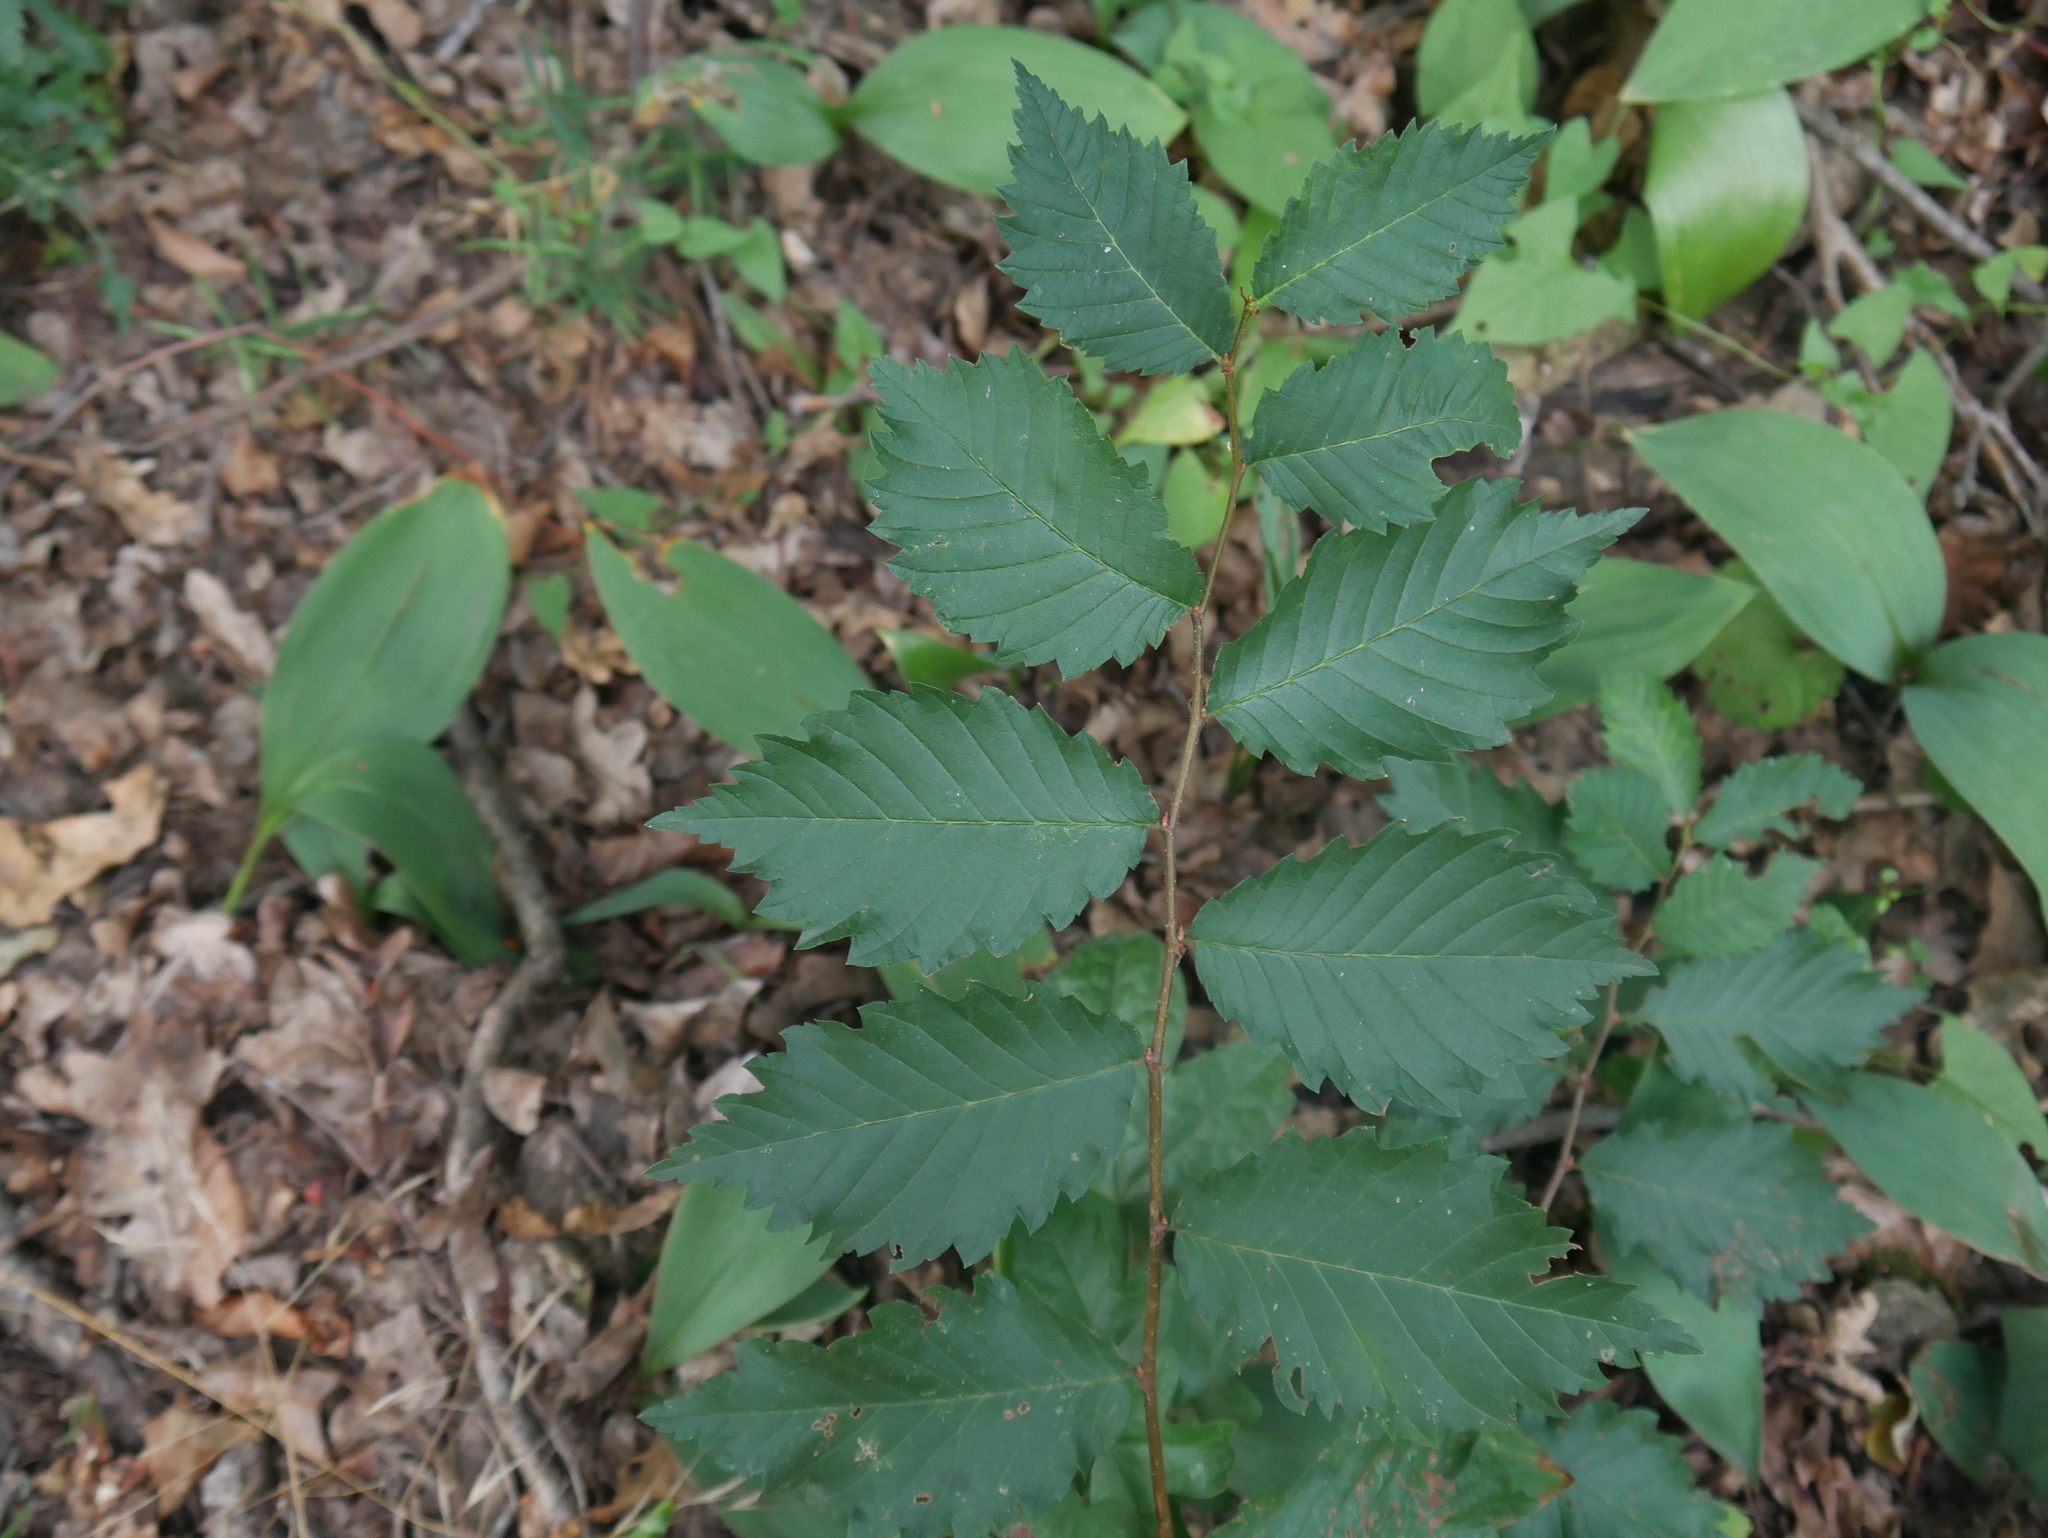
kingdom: Plantae
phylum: Tracheophyta
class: Magnoliopsida
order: Rosales
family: Ulmaceae
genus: Ulmus
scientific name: Ulmus minor
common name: Small-leaved elm
